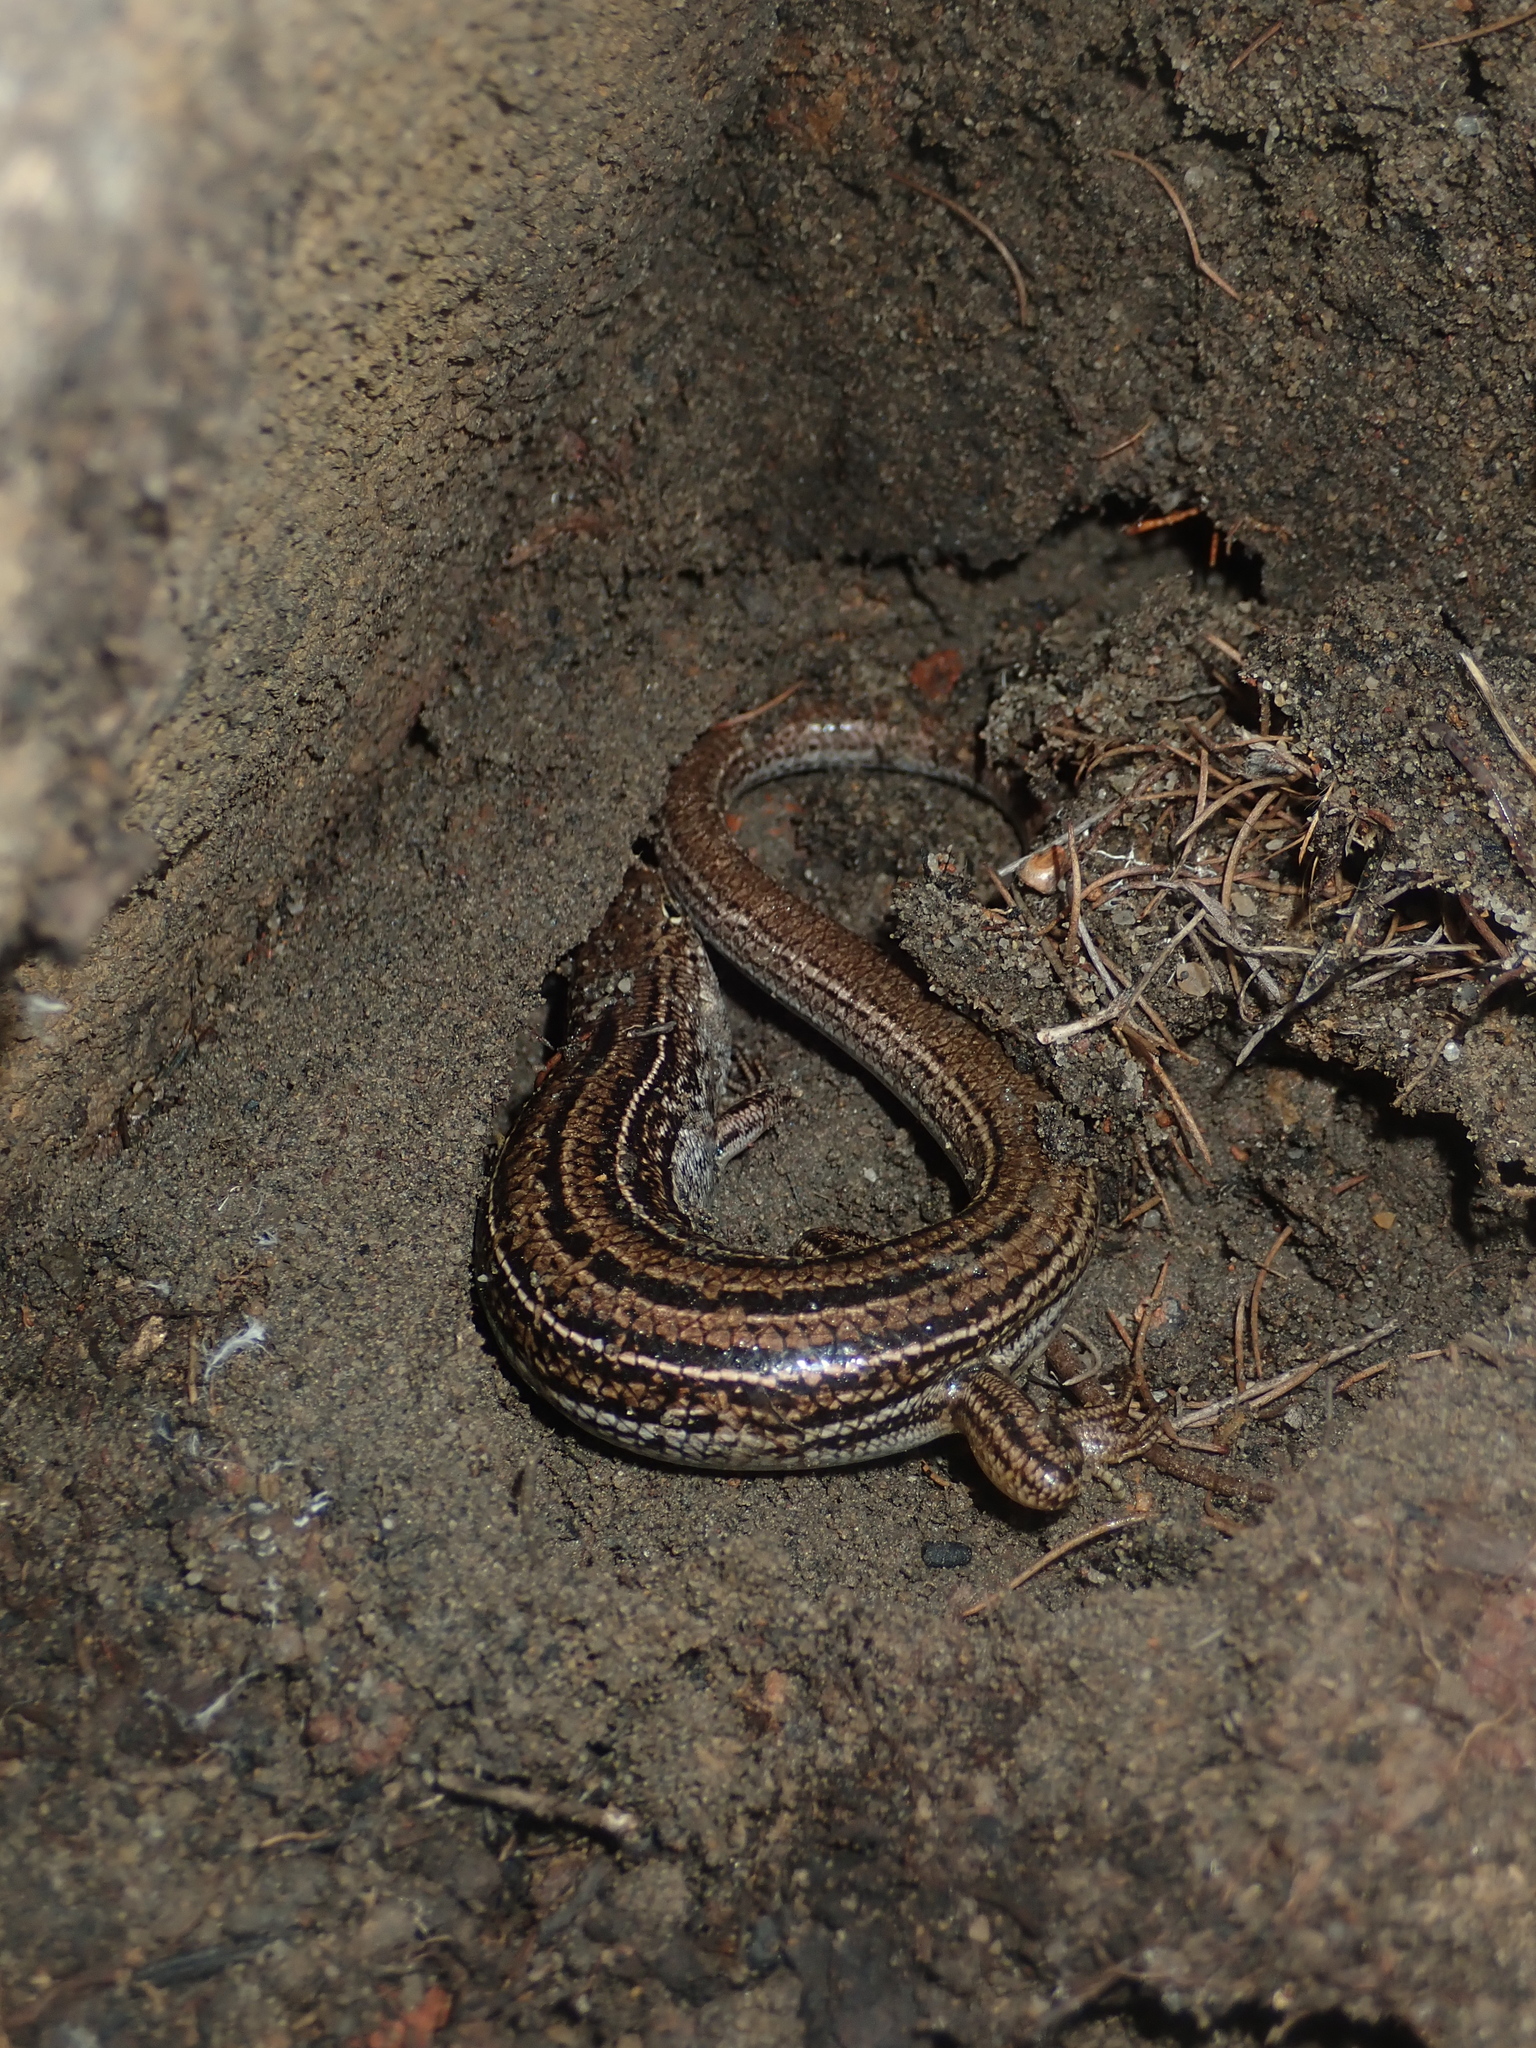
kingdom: Animalia
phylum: Chordata
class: Squamata
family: Scincidae
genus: Ctenotus
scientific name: Ctenotus fallens
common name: West-coast laterite ctenotus
